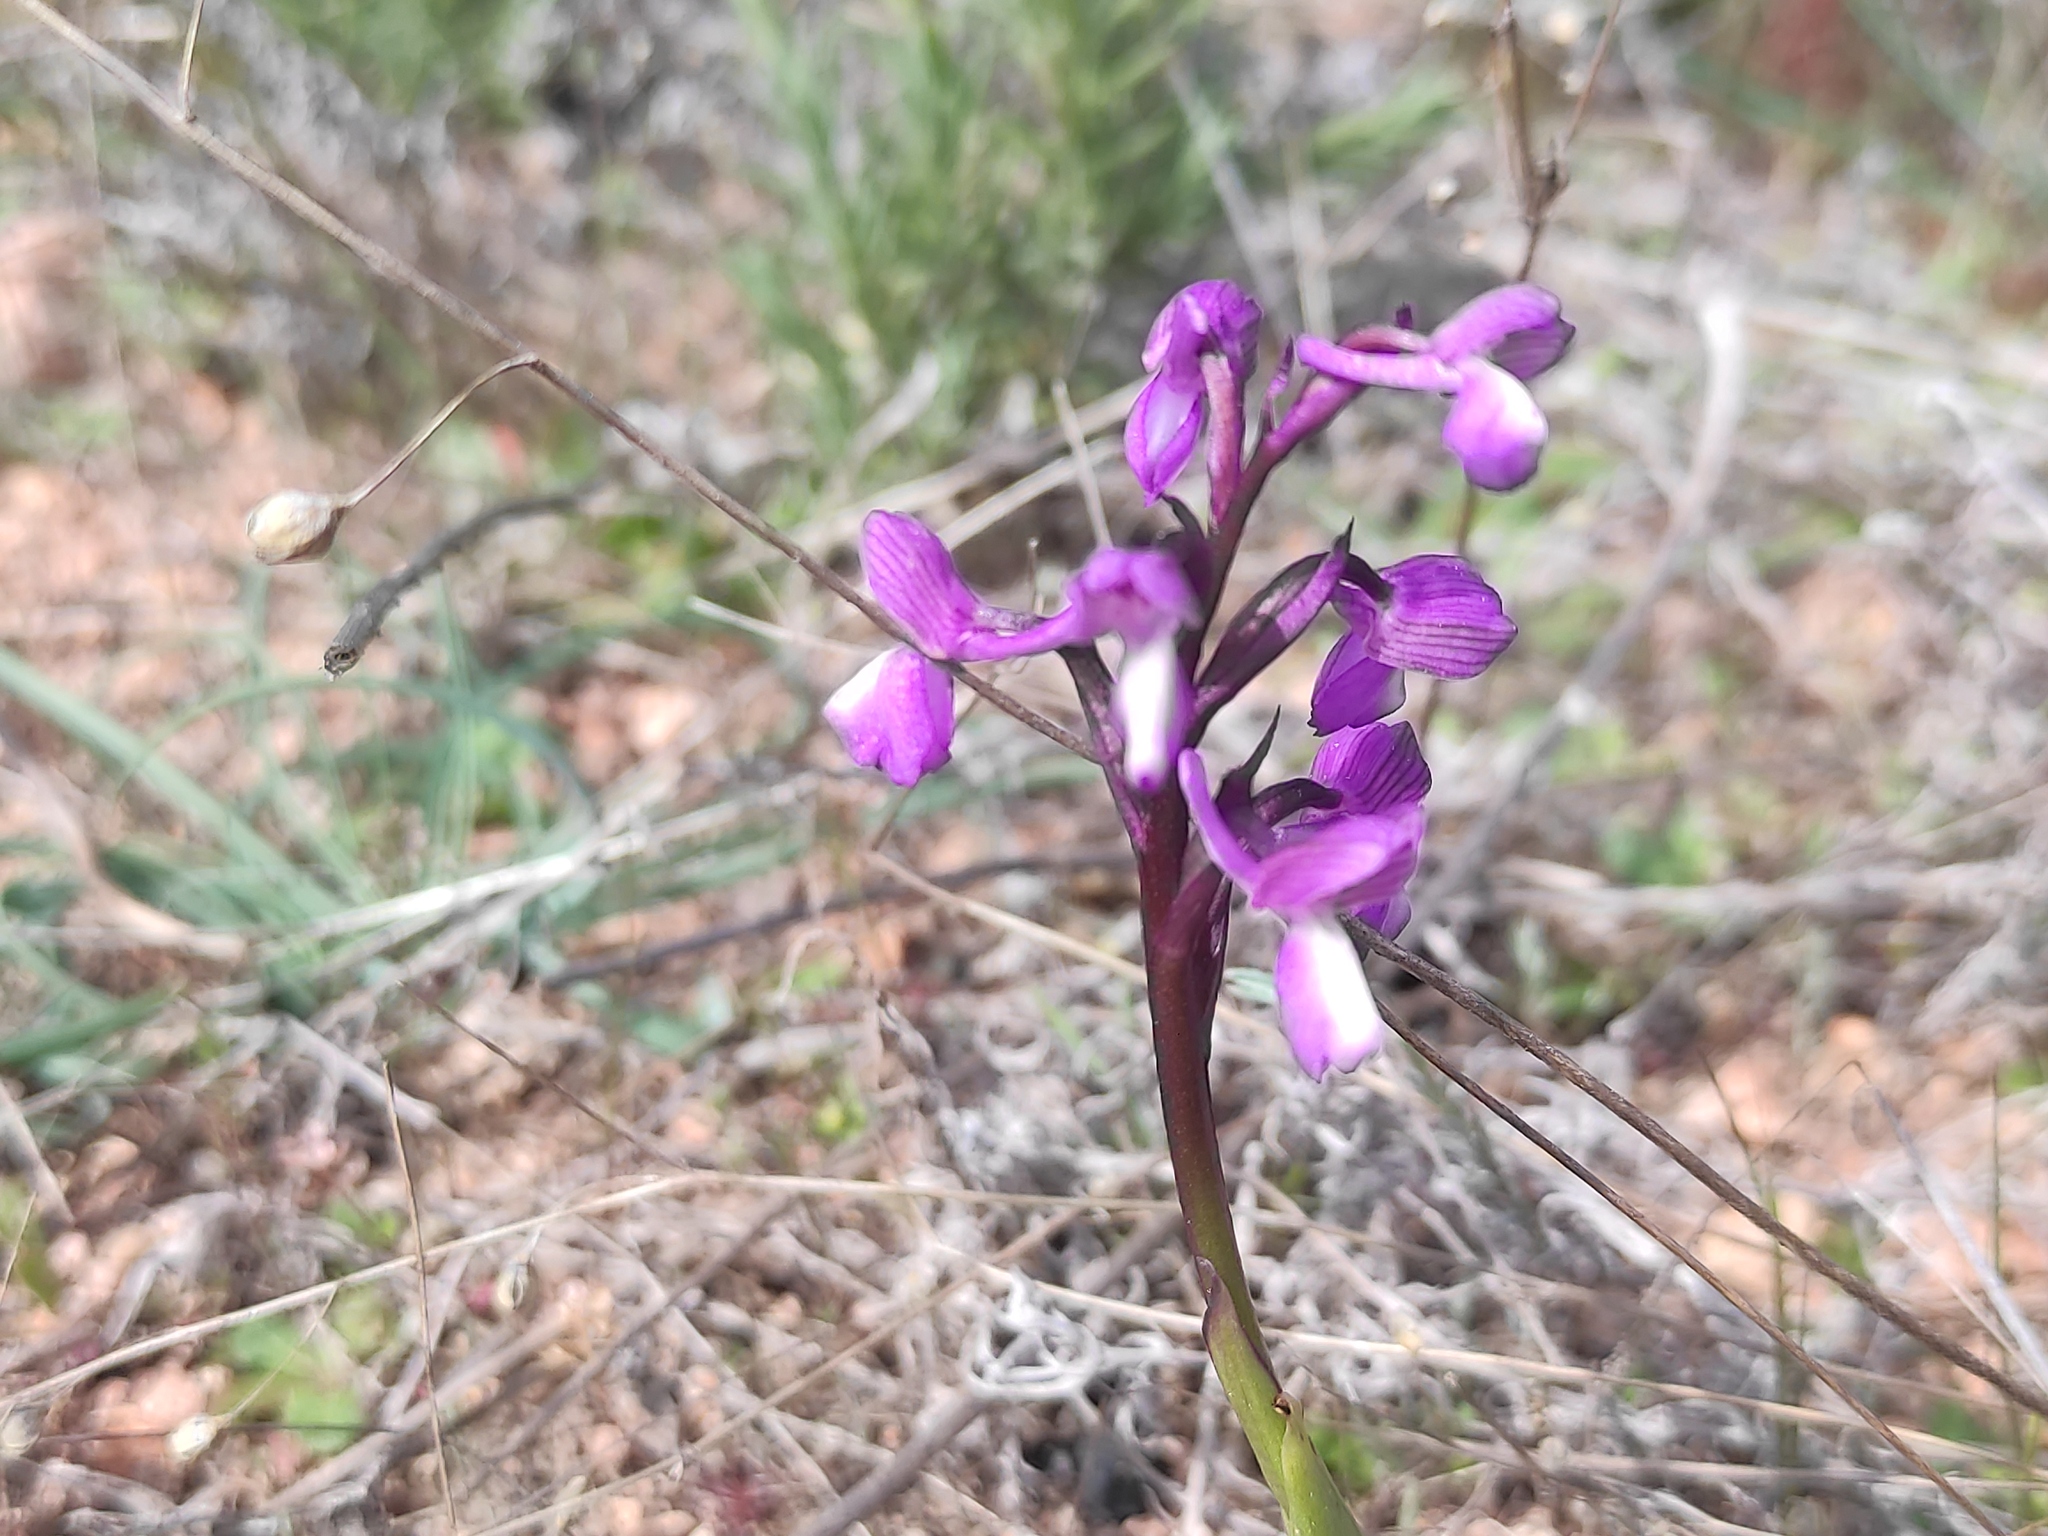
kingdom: Plantae
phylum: Tracheophyta
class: Liliopsida
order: Asparagales
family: Orchidaceae
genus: Anacamptis
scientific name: Anacamptis morio
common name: Green-winged orchid
